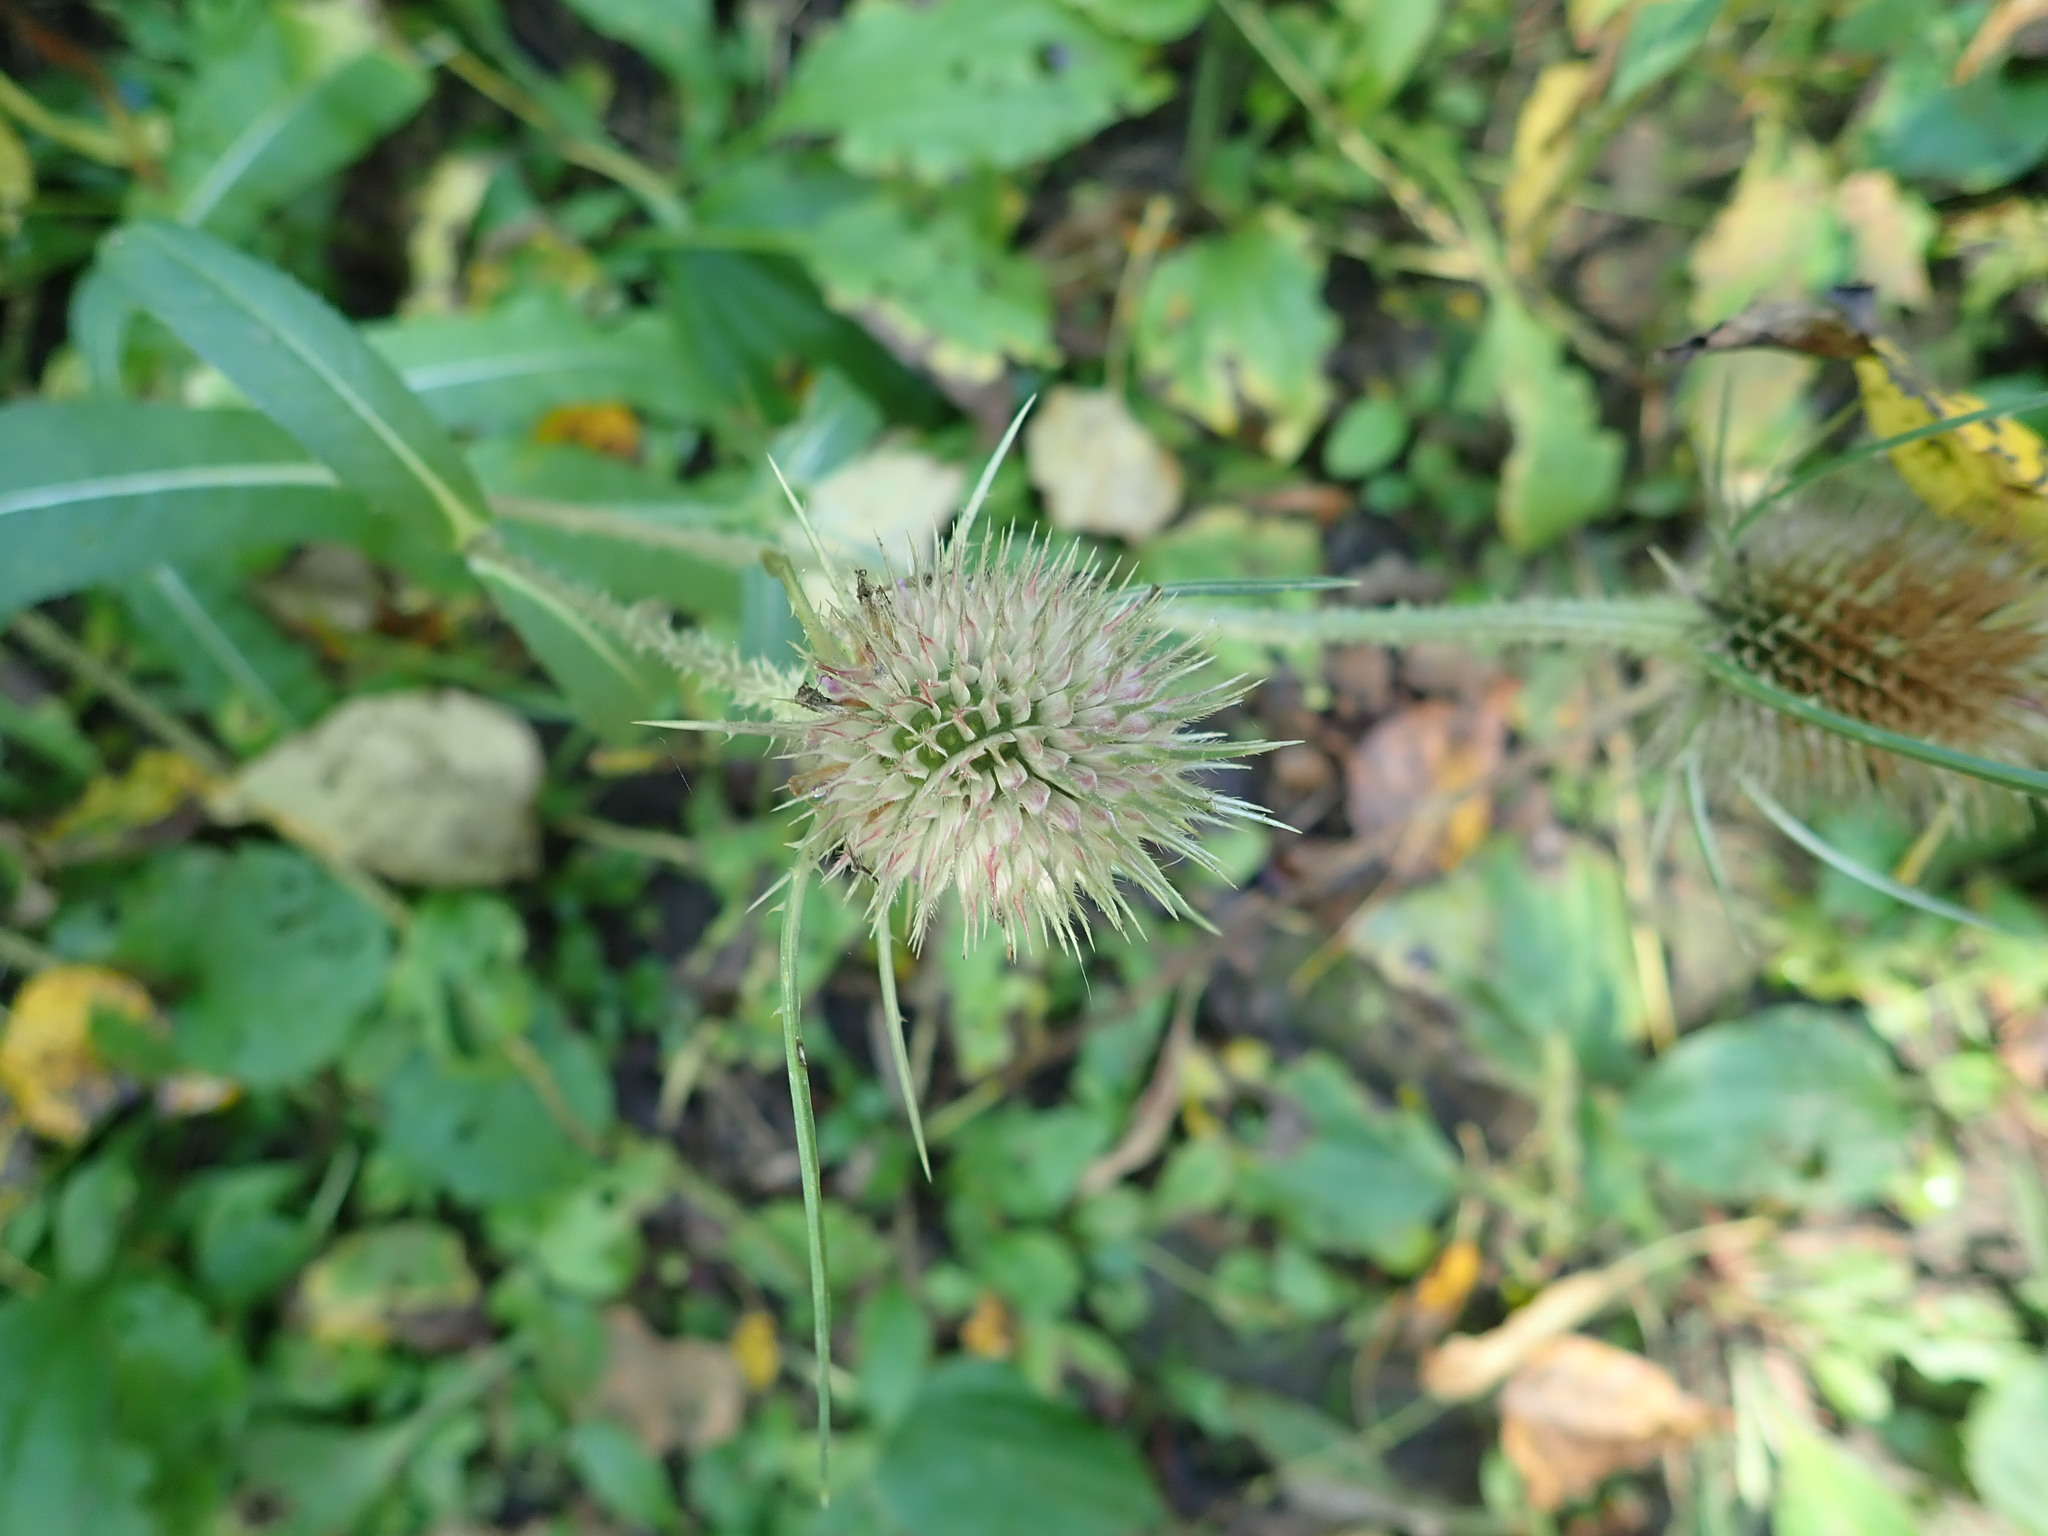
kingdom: Plantae
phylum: Tracheophyta
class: Magnoliopsida
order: Dipsacales
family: Caprifoliaceae
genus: Dipsacus
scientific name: Dipsacus fullonum
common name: Teasel
